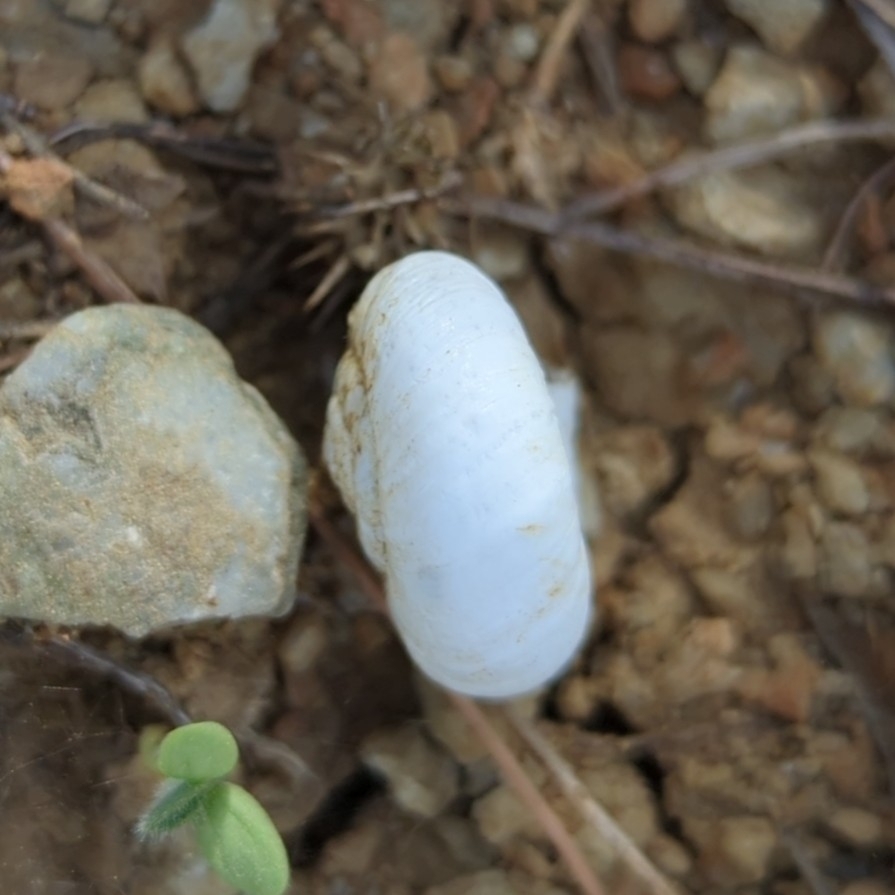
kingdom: Animalia
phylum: Mollusca
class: Gastropoda
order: Stylommatophora
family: Hygromiidae
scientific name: Hygromiidae
